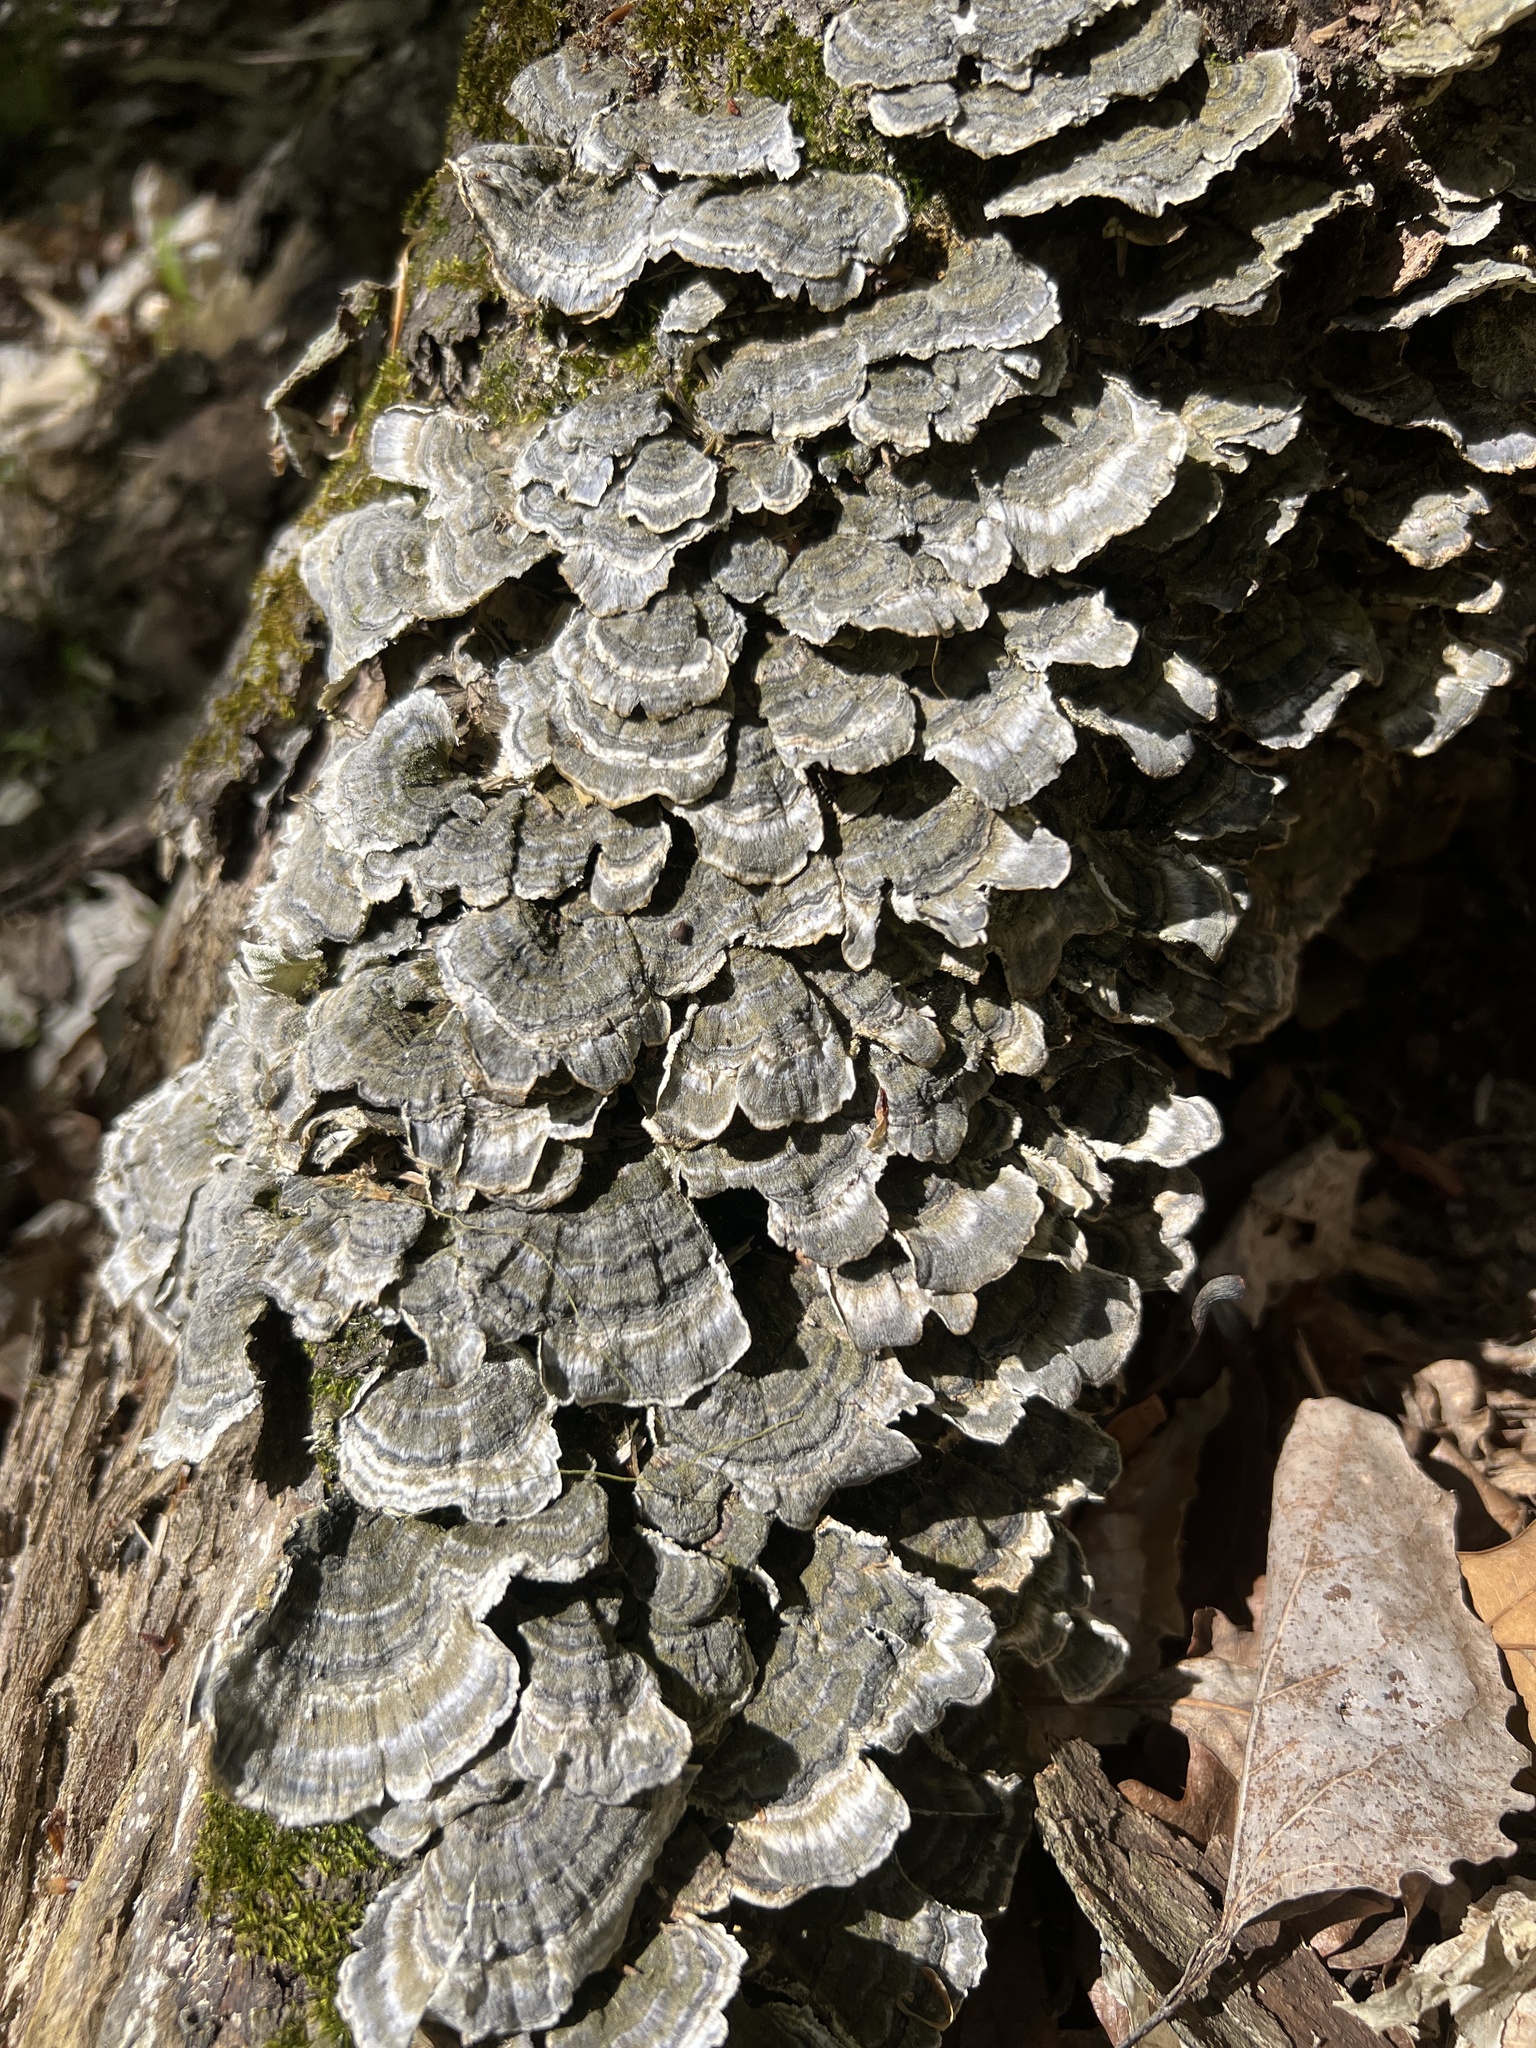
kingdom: Fungi
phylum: Basidiomycota
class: Agaricomycetes
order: Polyporales
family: Polyporaceae
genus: Trametes
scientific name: Trametes versicolor
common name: Turkeytail
